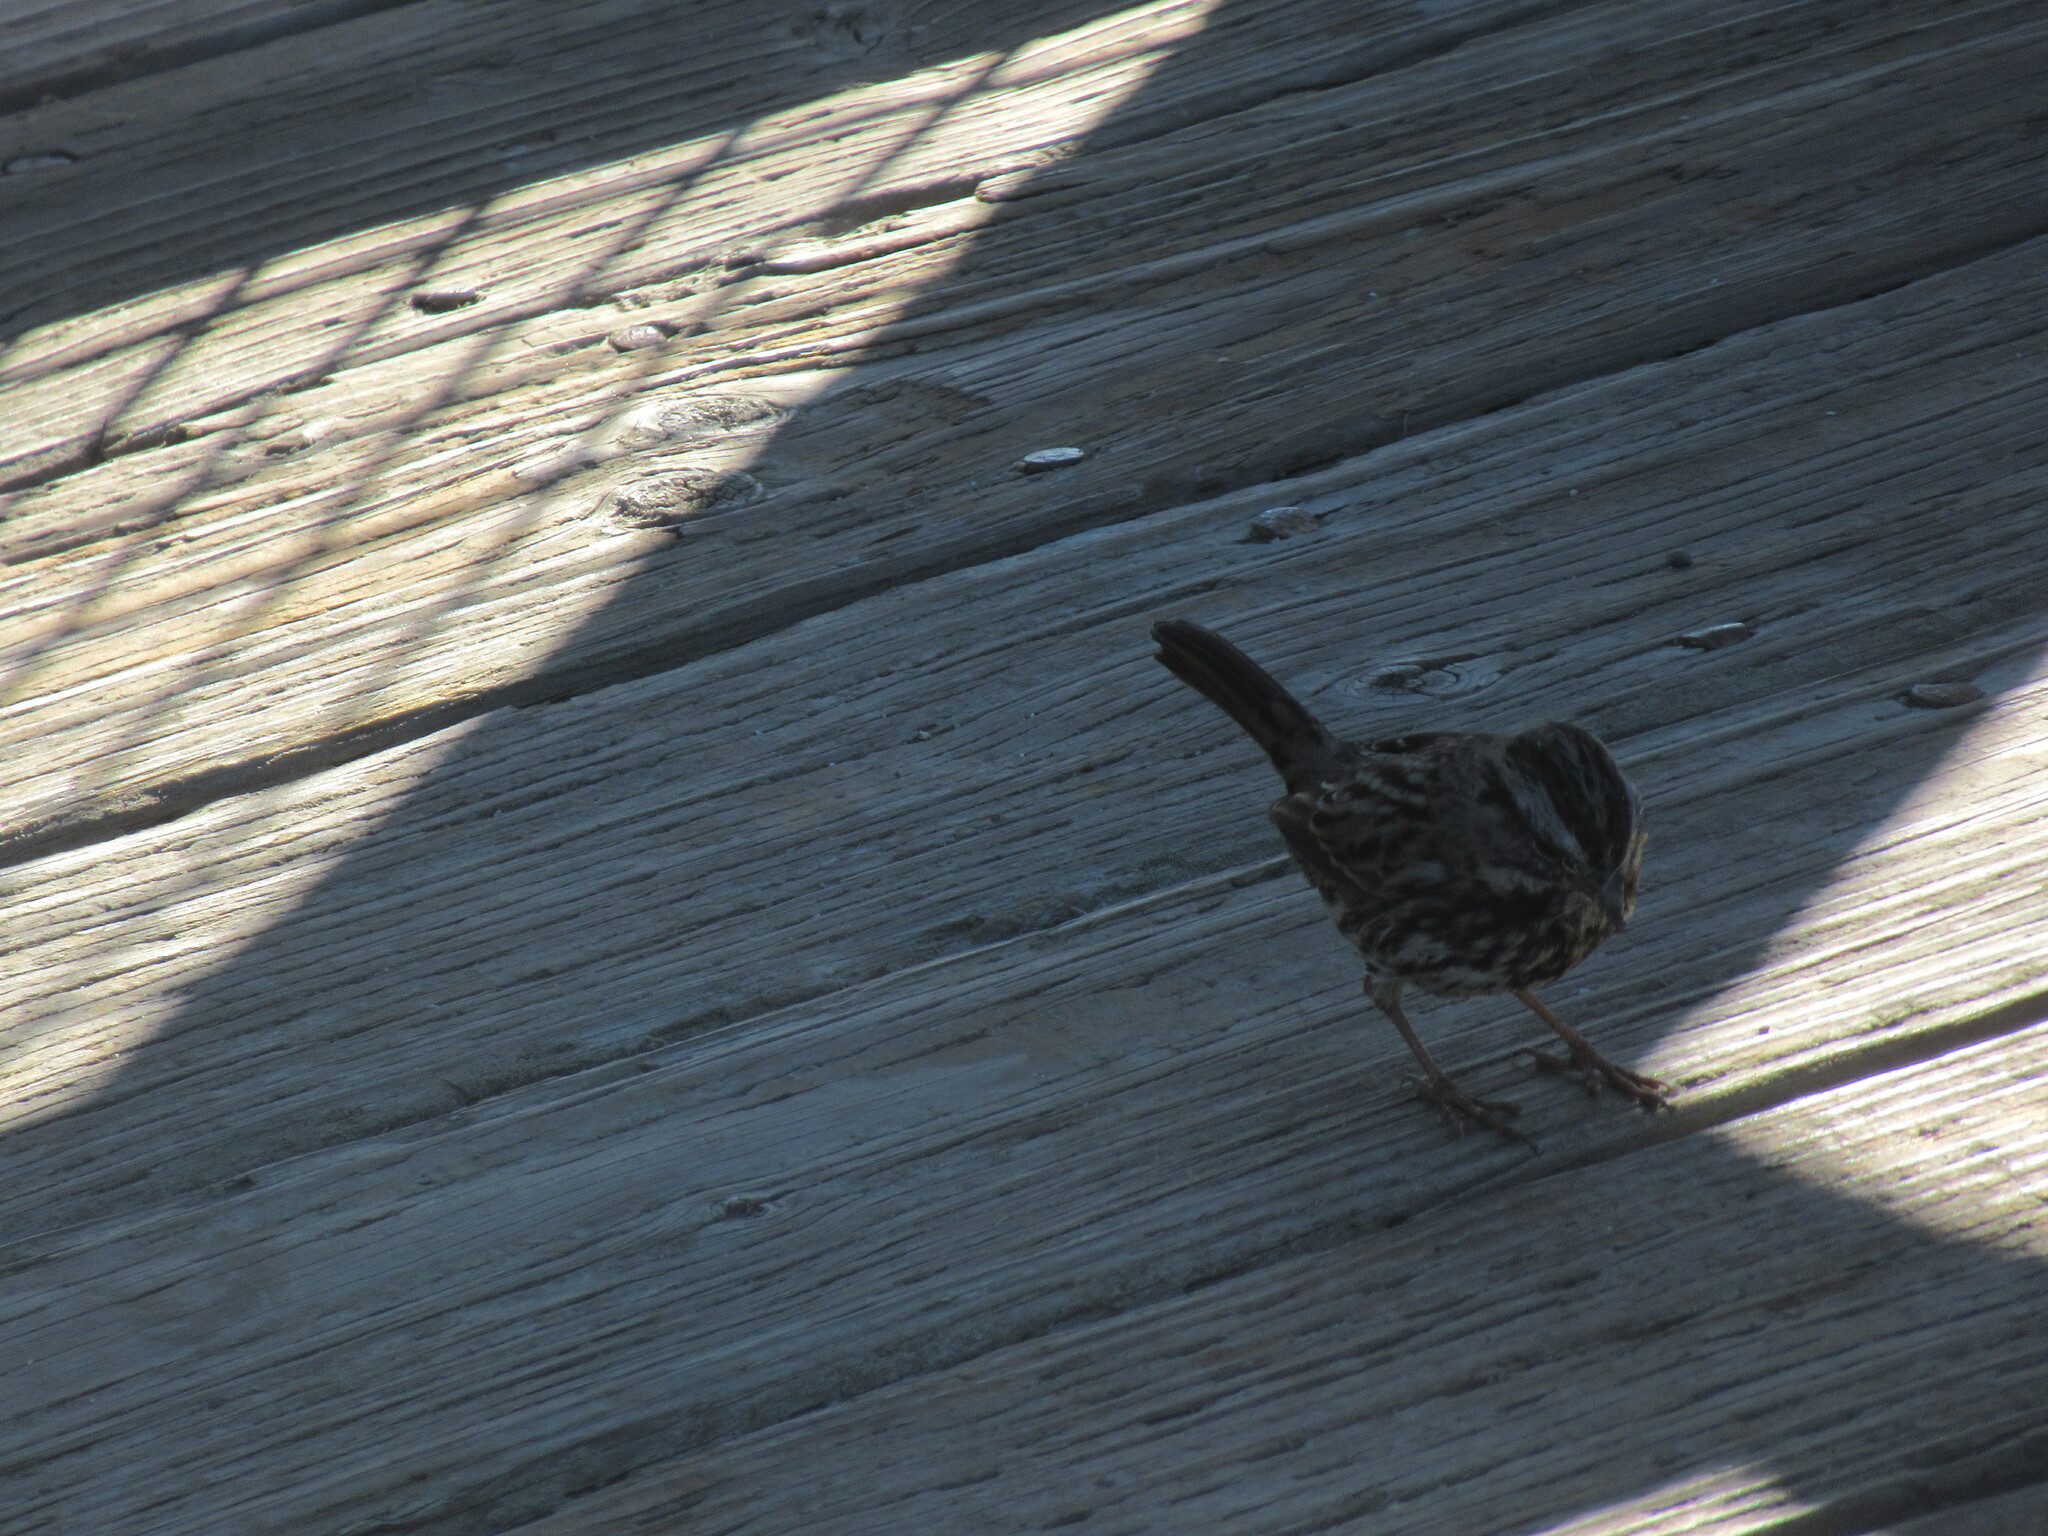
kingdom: Animalia
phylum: Chordata
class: Aves
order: Passeriformes
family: Passerellidae
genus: Melospiza
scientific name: Melospiza melodia
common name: Song sparrow
